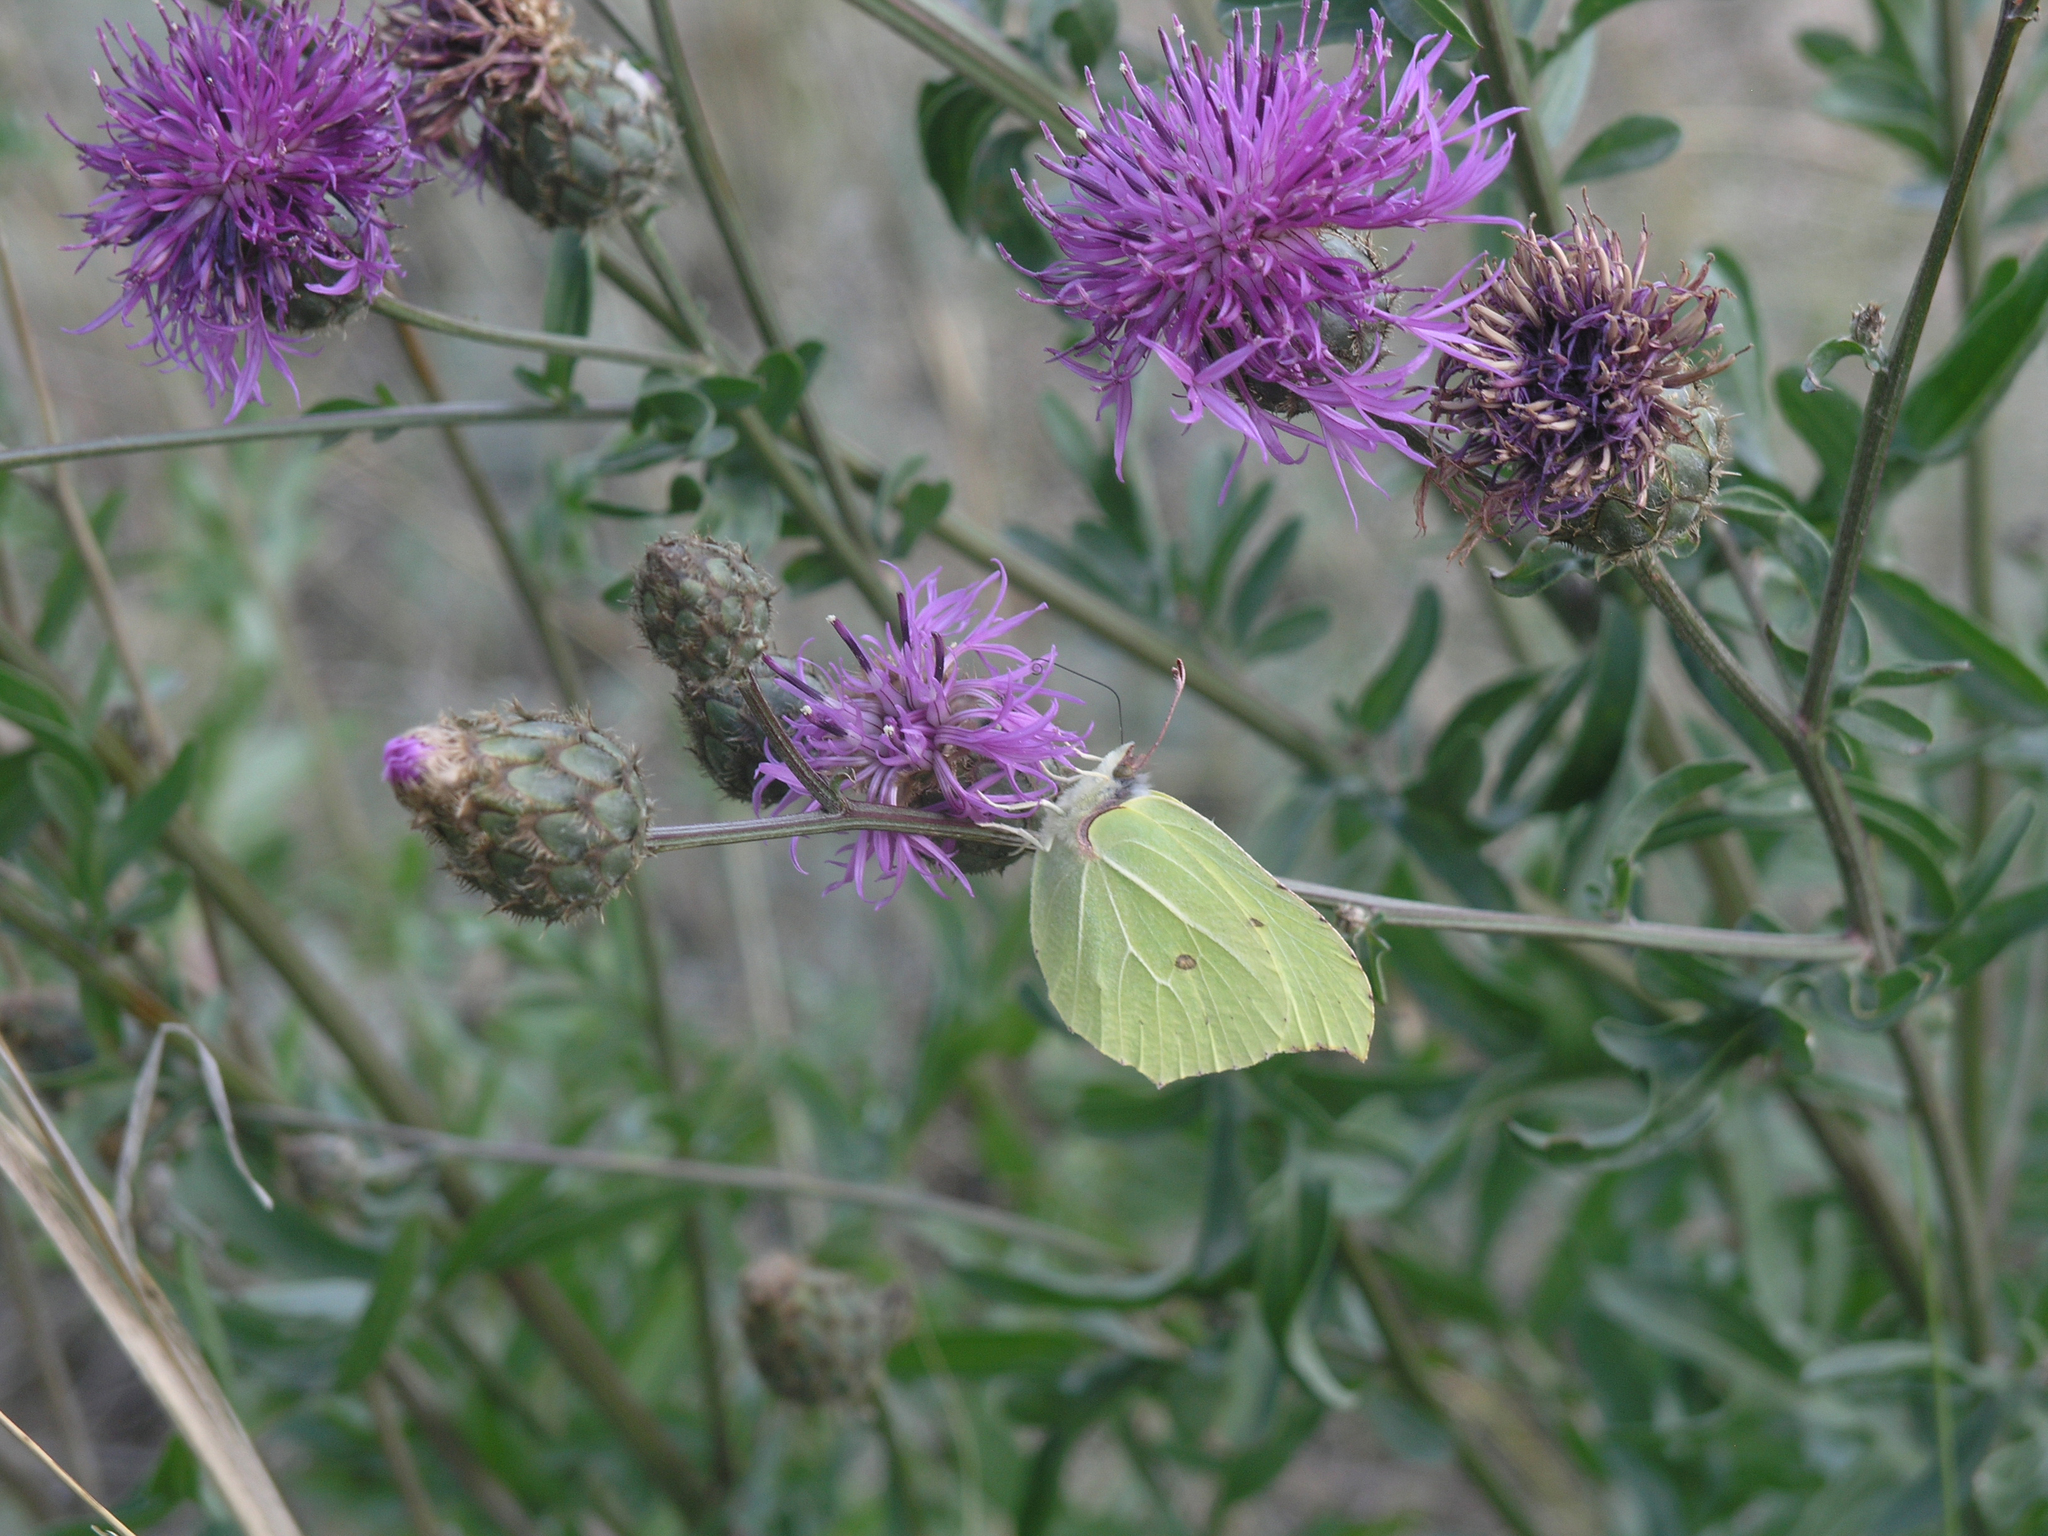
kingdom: Plantae
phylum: Tracheophyta
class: Magnoliopsida
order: Asterales
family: Asteraceae
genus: Centaurea
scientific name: Centaurea scabiosa
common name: Greater knapweed
